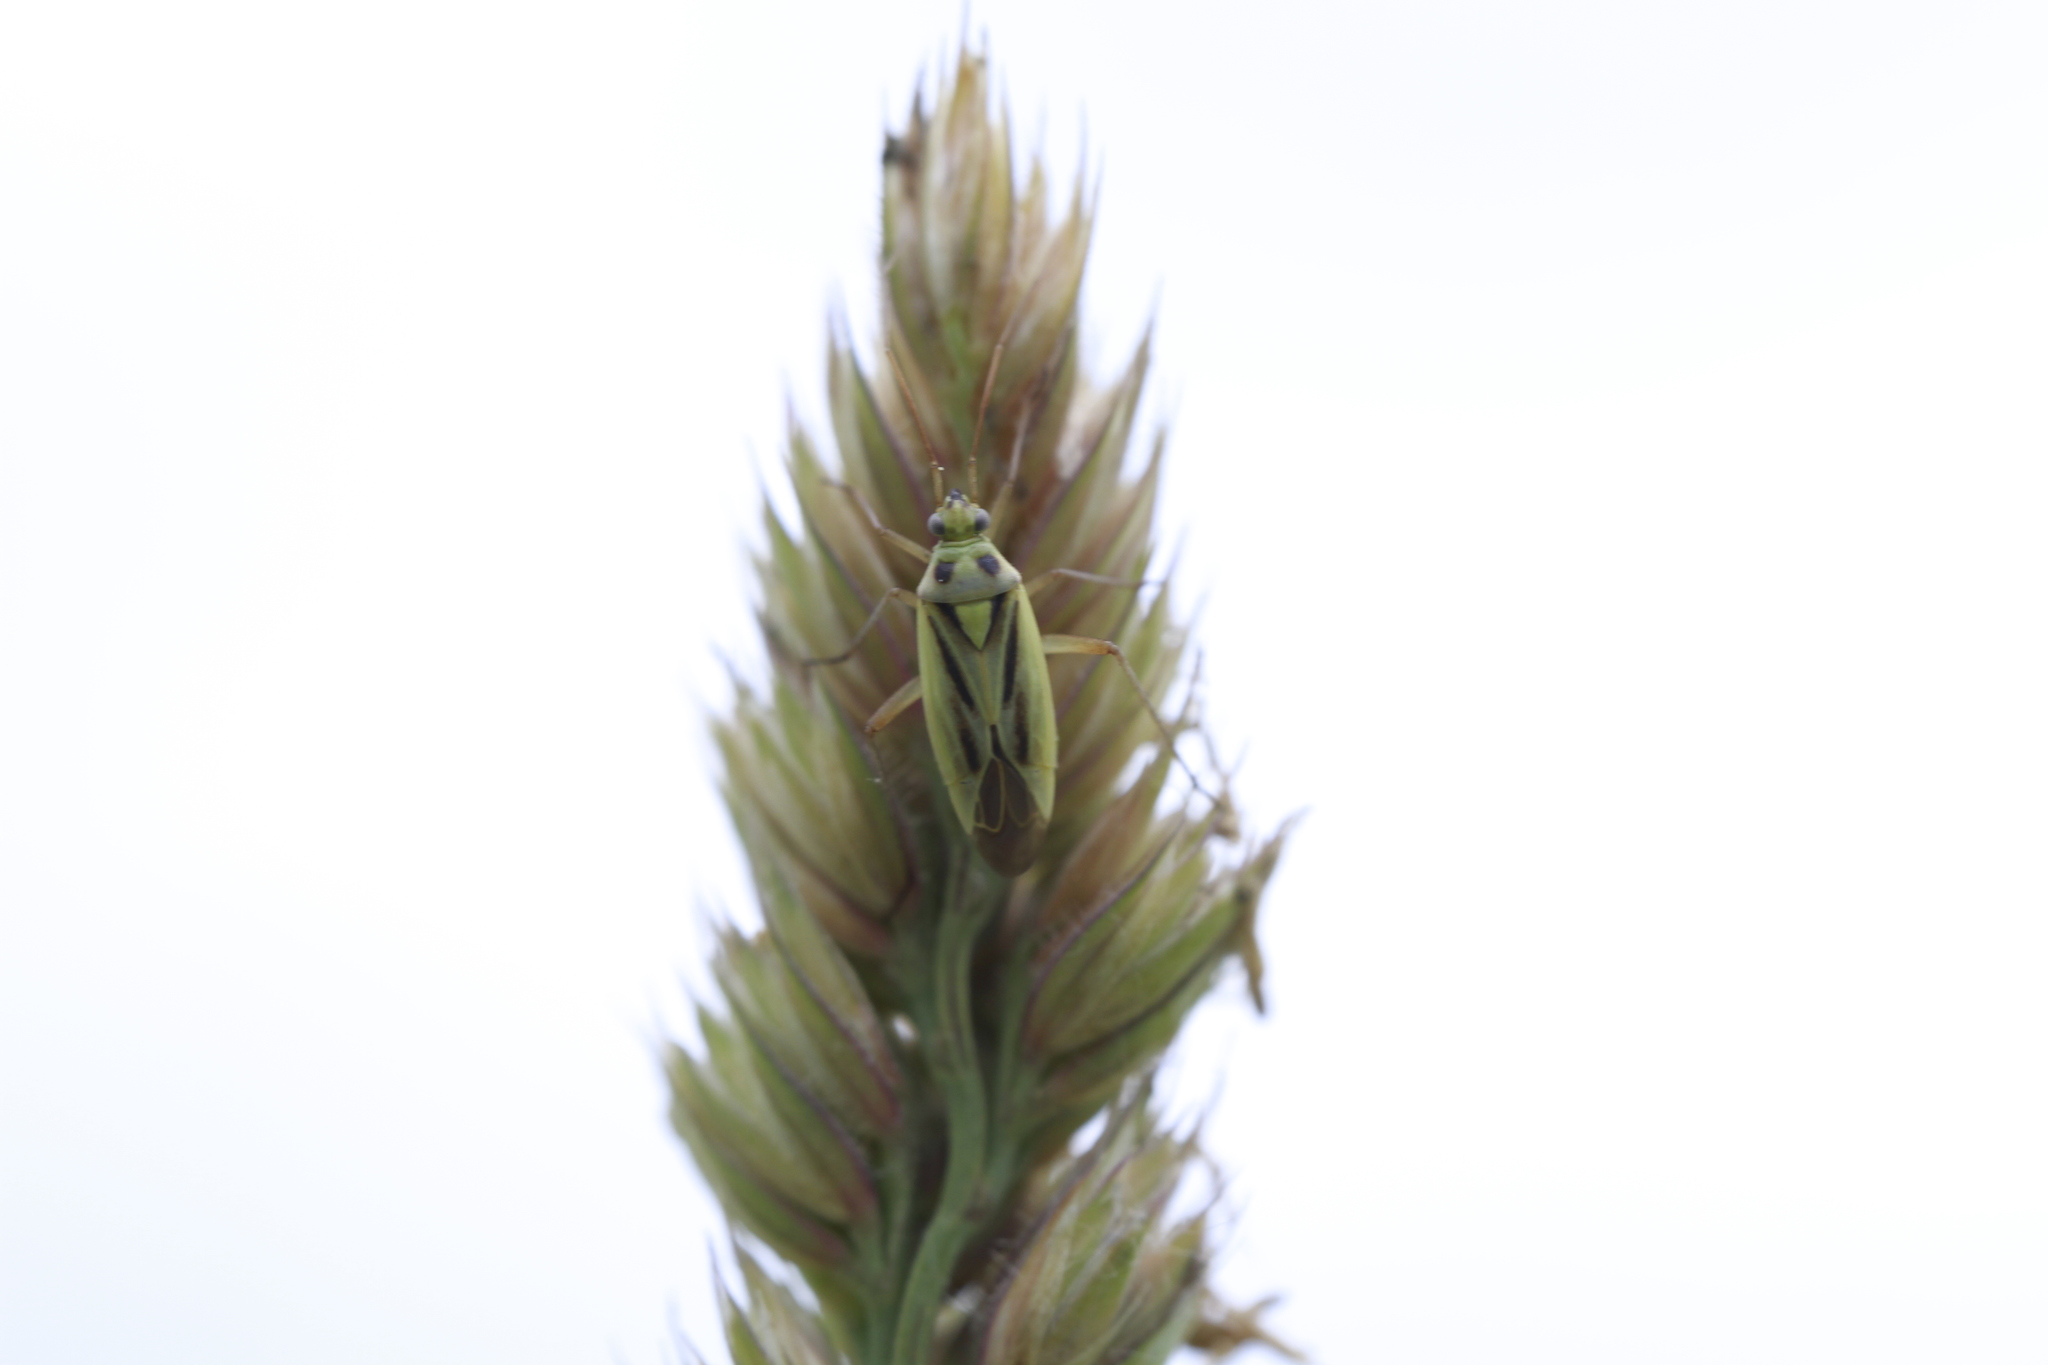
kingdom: Animalia
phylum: Arthropoda
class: Insecta
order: Hemiptera
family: Miridae
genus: Stenotus
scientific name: Stenotus binotatus
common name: Plant bug
